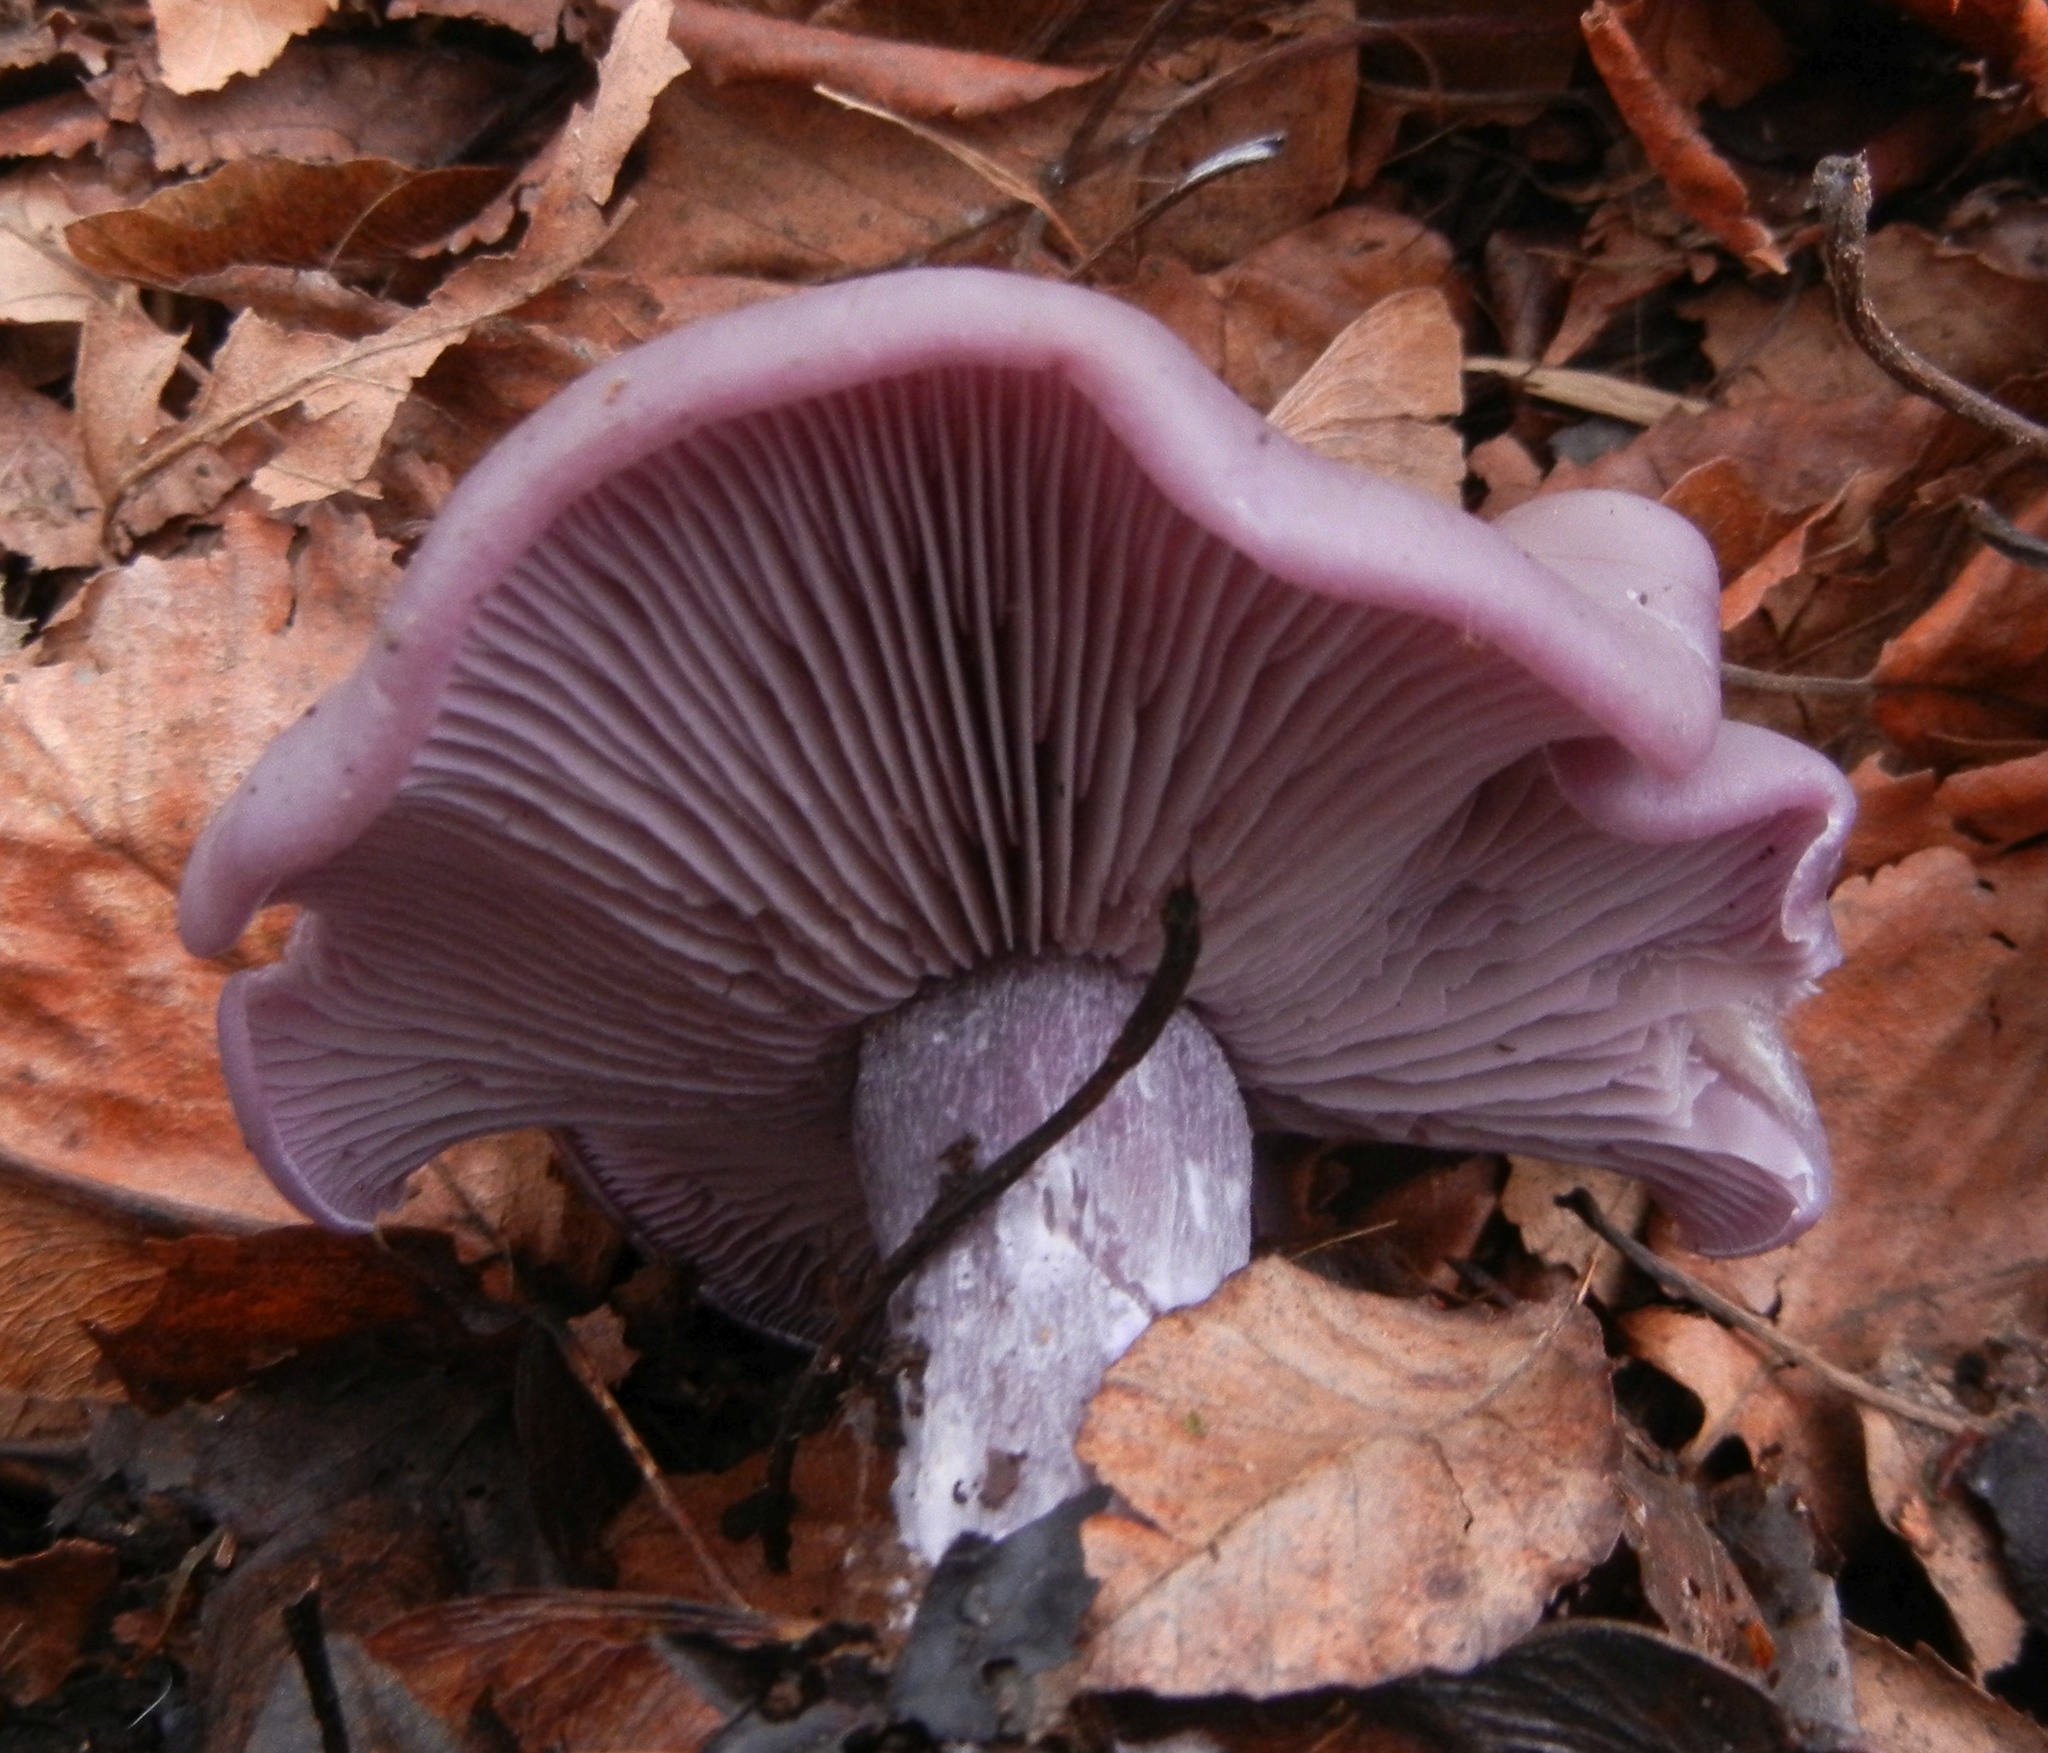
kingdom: Fungi
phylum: Basidiomycota
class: Agaricomycetes
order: Agaricales
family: Tricholomataceae
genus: Collybia
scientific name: Collybia
